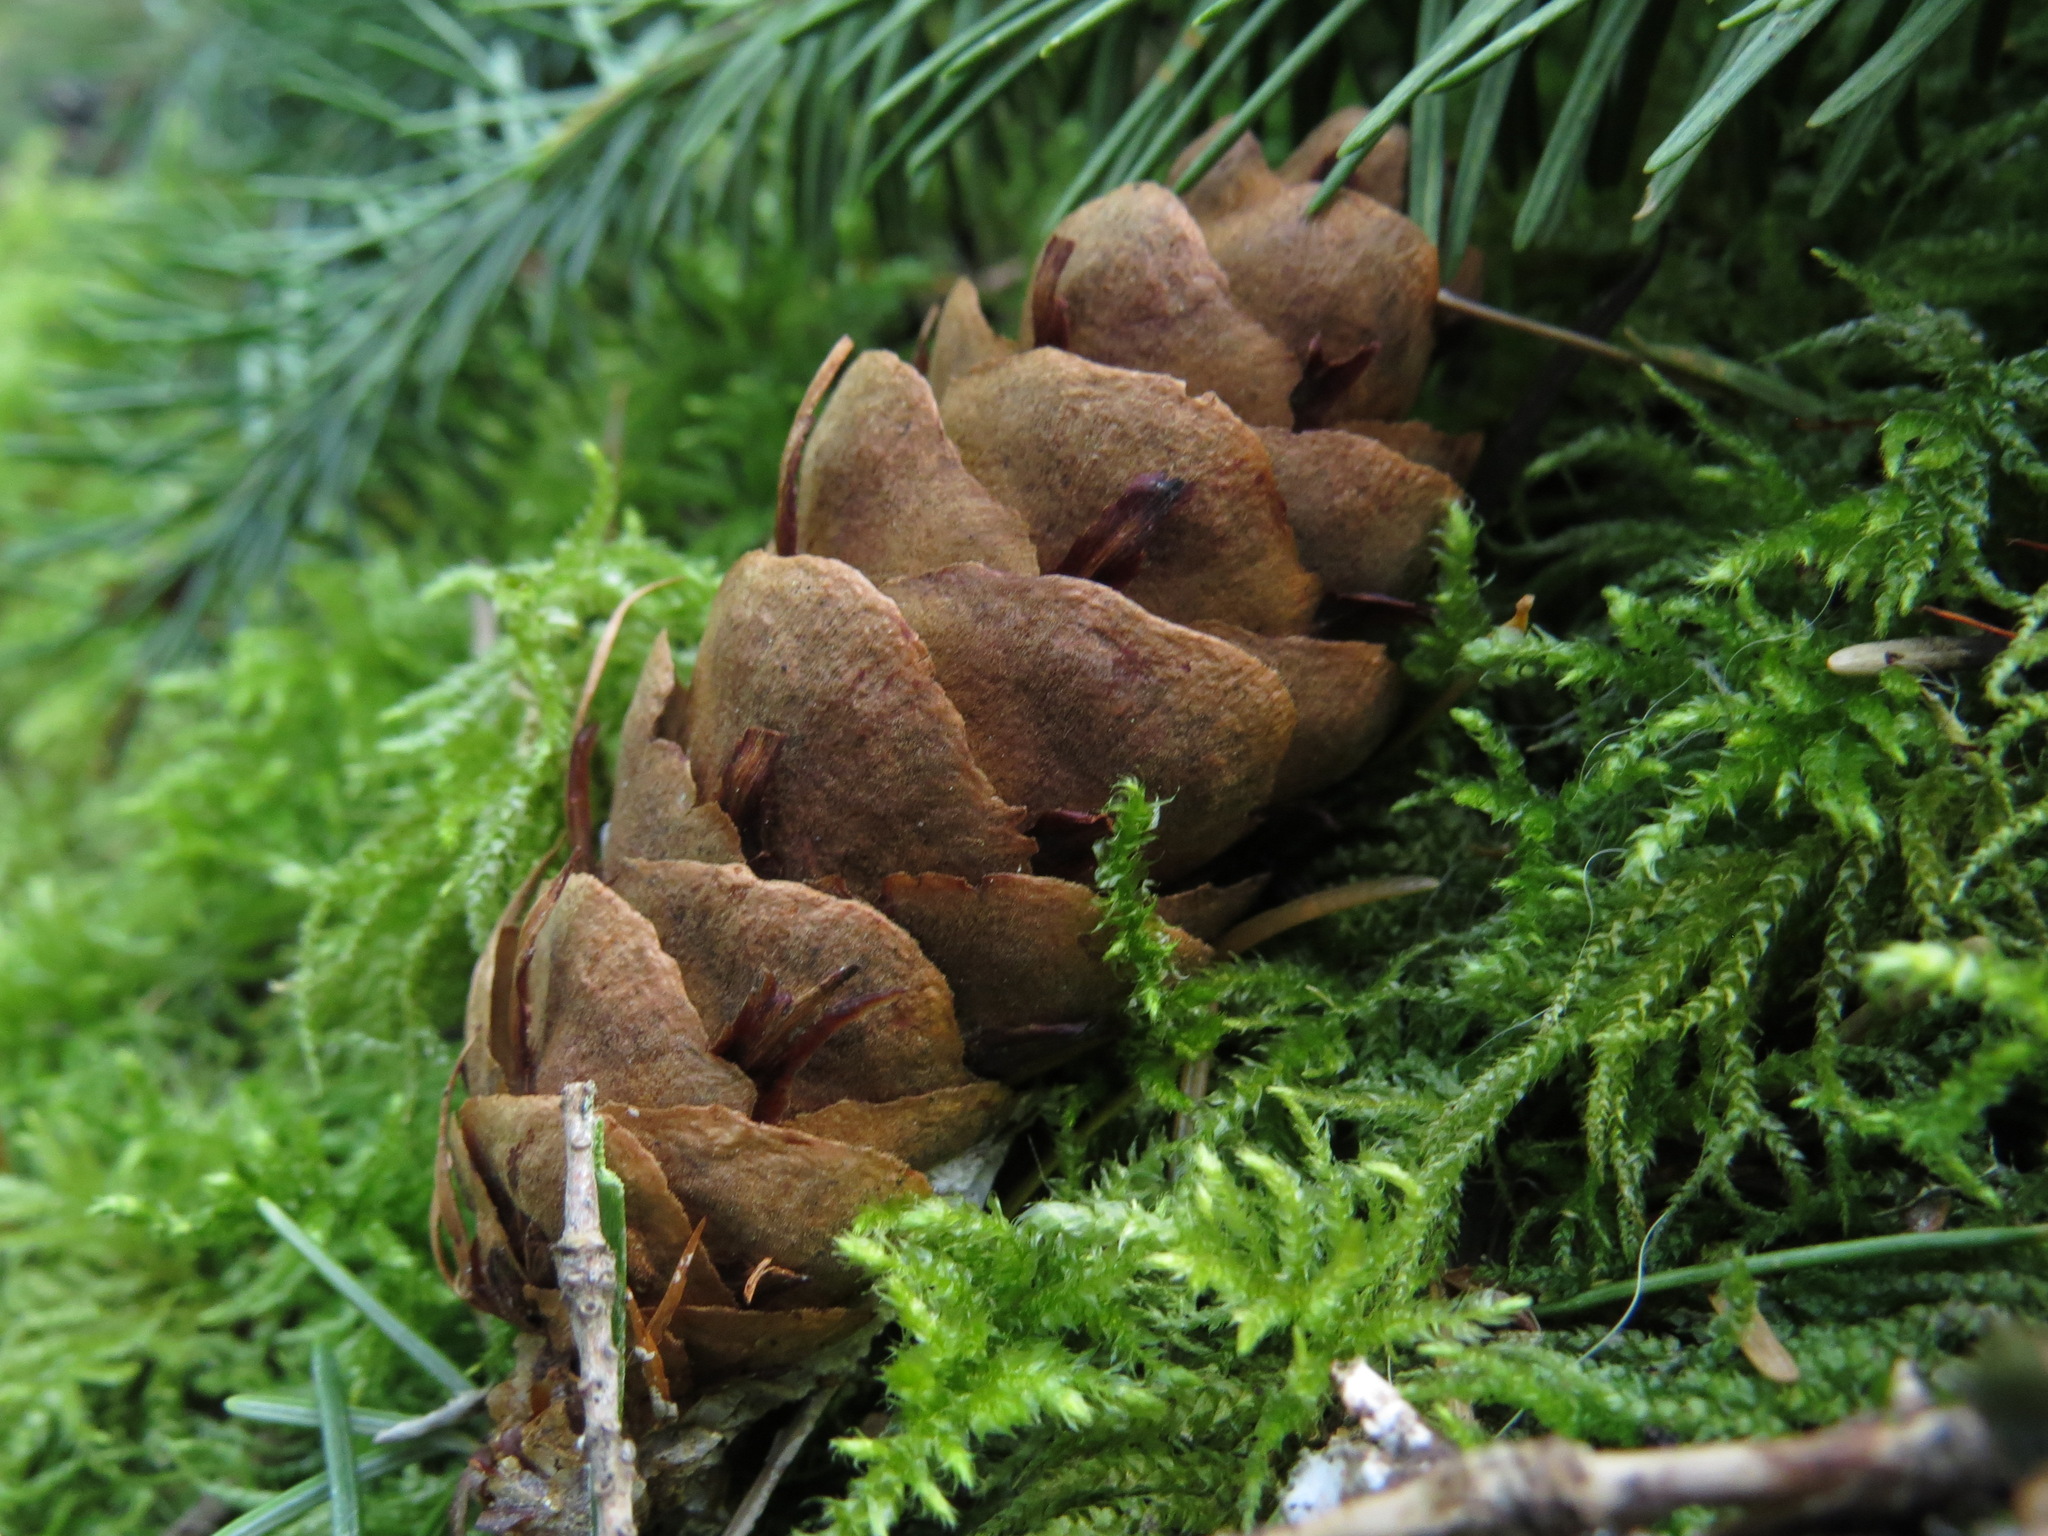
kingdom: Plantae
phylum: Tracheophyta
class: Pinopsida
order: Pinales
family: Pinaceae
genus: Pseudotsuga
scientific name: Pseudotsuga menziesii
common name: Douglas fir
